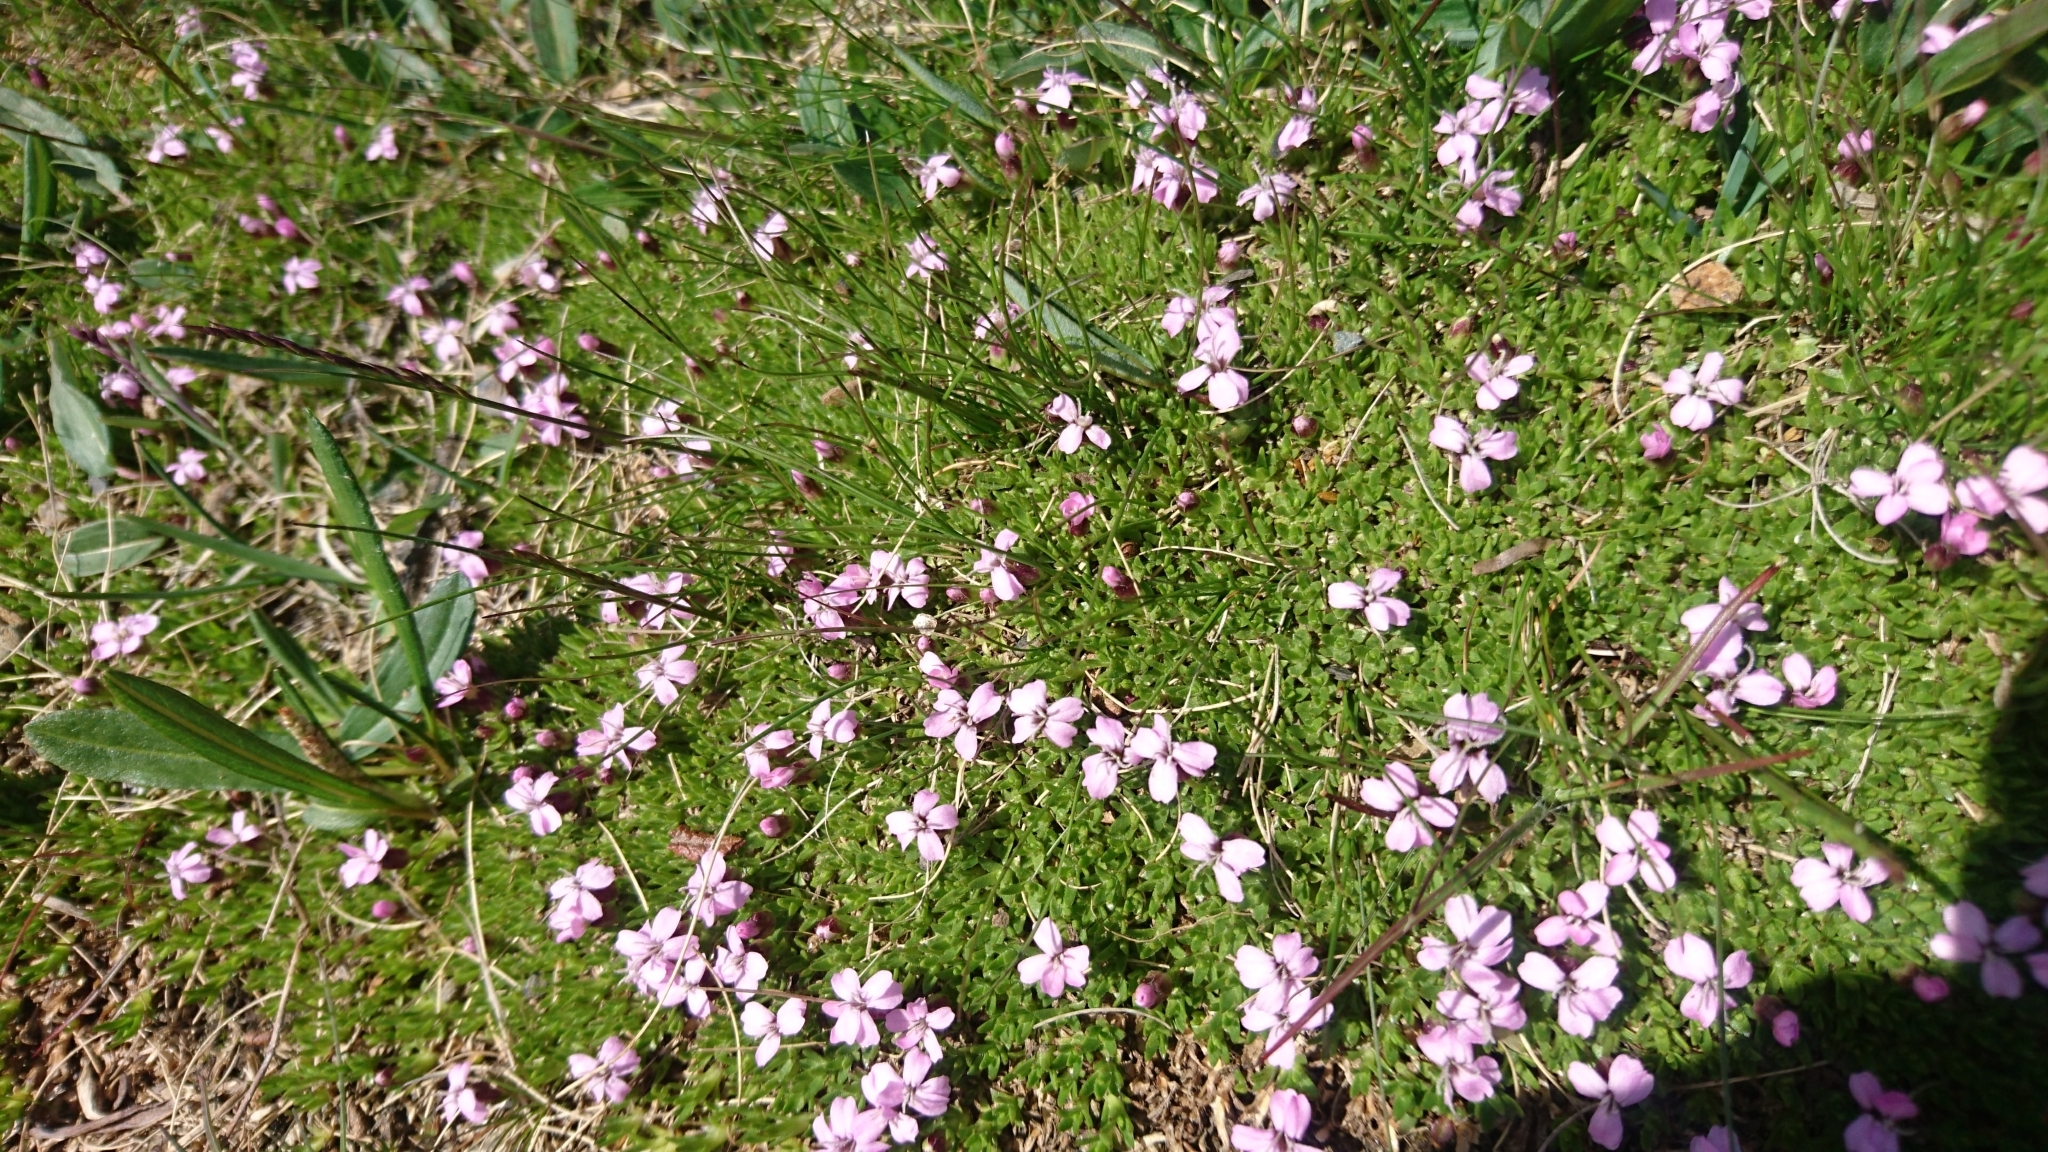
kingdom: Plantae
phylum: Tracheophyta
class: Magnoliopsida
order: Caryophyllales
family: Caryophyllaceae
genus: Silene
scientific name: Silene acaulis
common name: Moss campion
